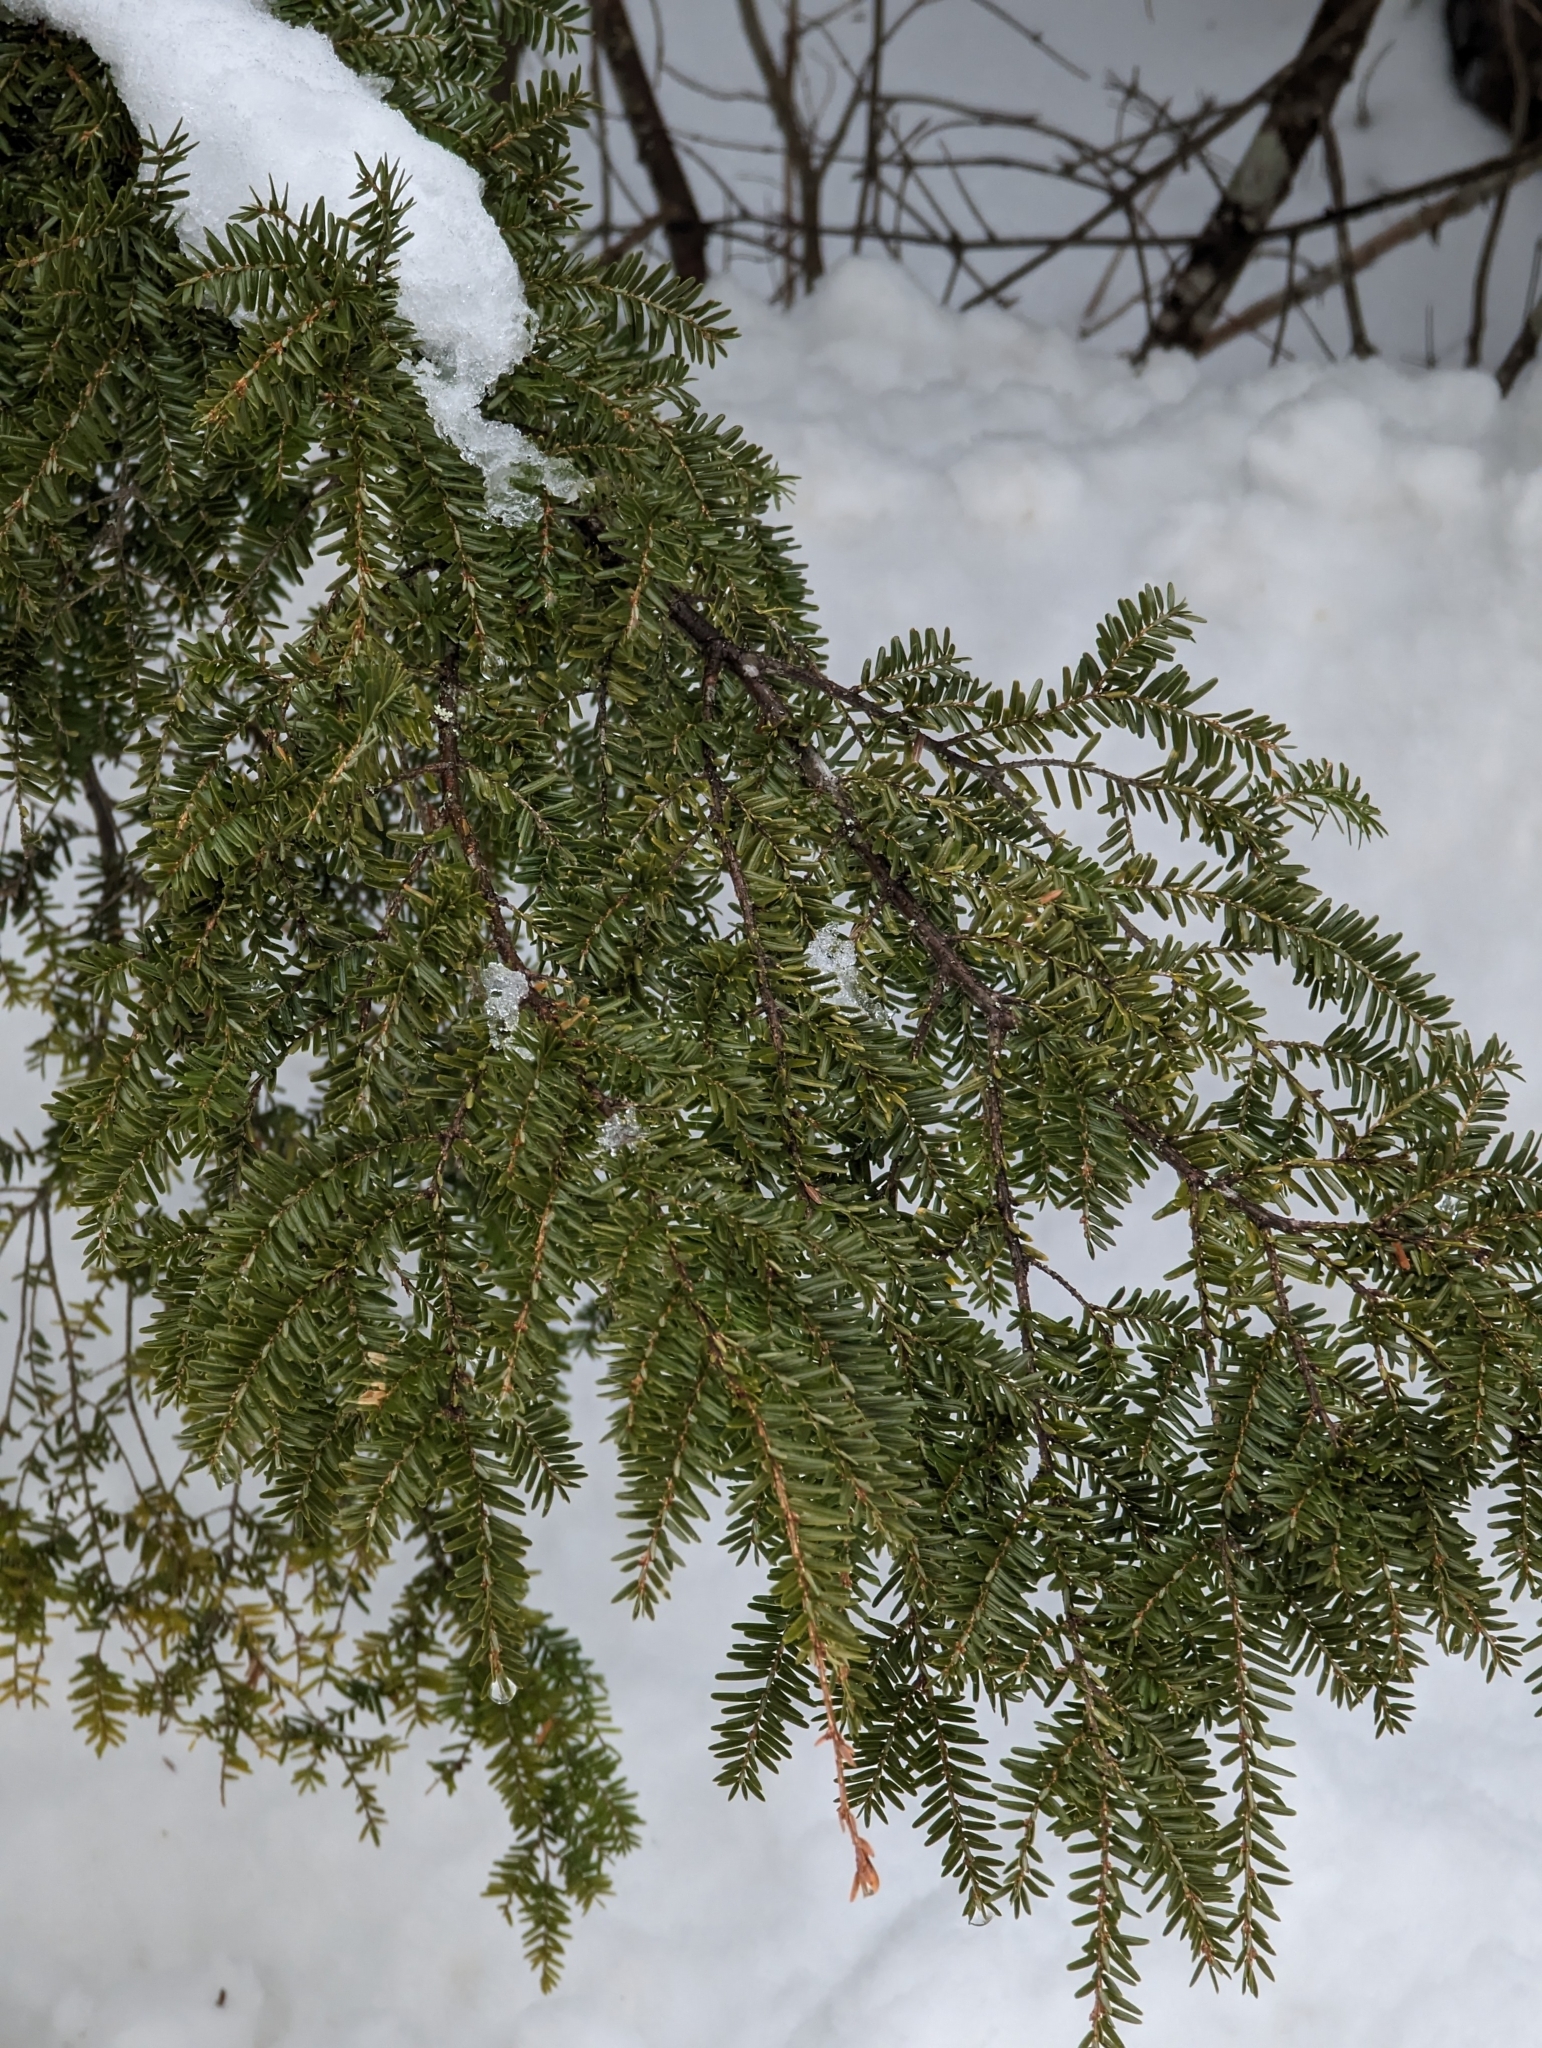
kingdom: Plantae
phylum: Tracheophyta
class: Pinopsida
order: Pinales
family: Pinaceae
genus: Tsuga
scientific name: Tsuga canadensis
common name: Eastern hemlock
